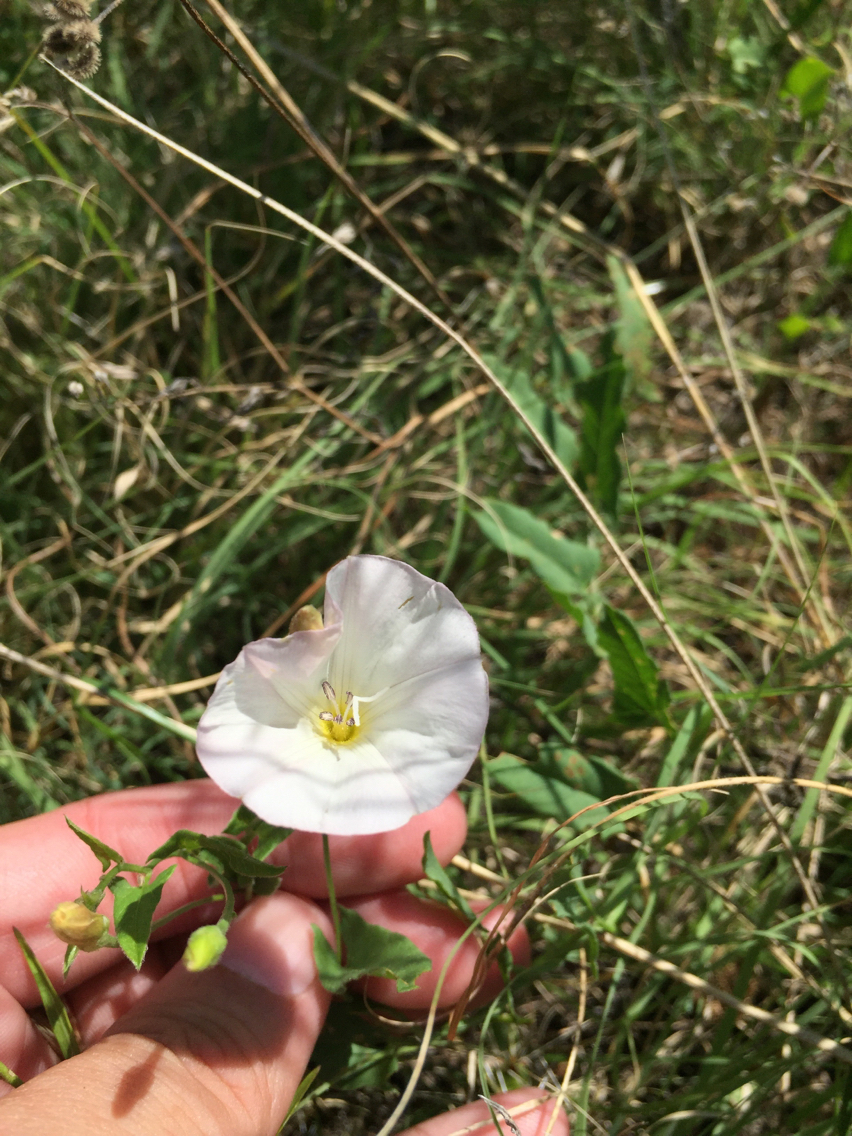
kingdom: Plantae
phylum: Tracheophyta
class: Magnoliopsida
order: Solanales
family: Convolvulaceae
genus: Convolvulus
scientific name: Convolvulus arvensis
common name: Field bindweed
